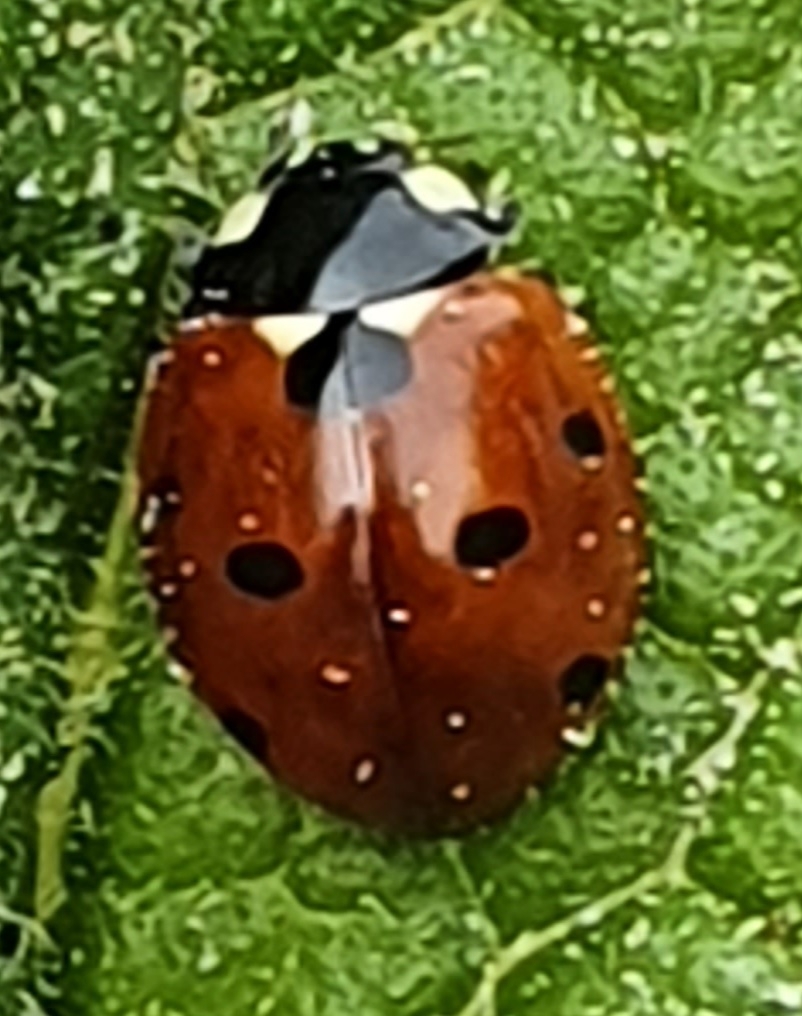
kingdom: Animalia
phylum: Arthropoda
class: Insecta
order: Coleoptera
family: Coccinellidae
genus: Coccinella
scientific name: Coccinella septempunctata
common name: Sevenspotted lady beetle
